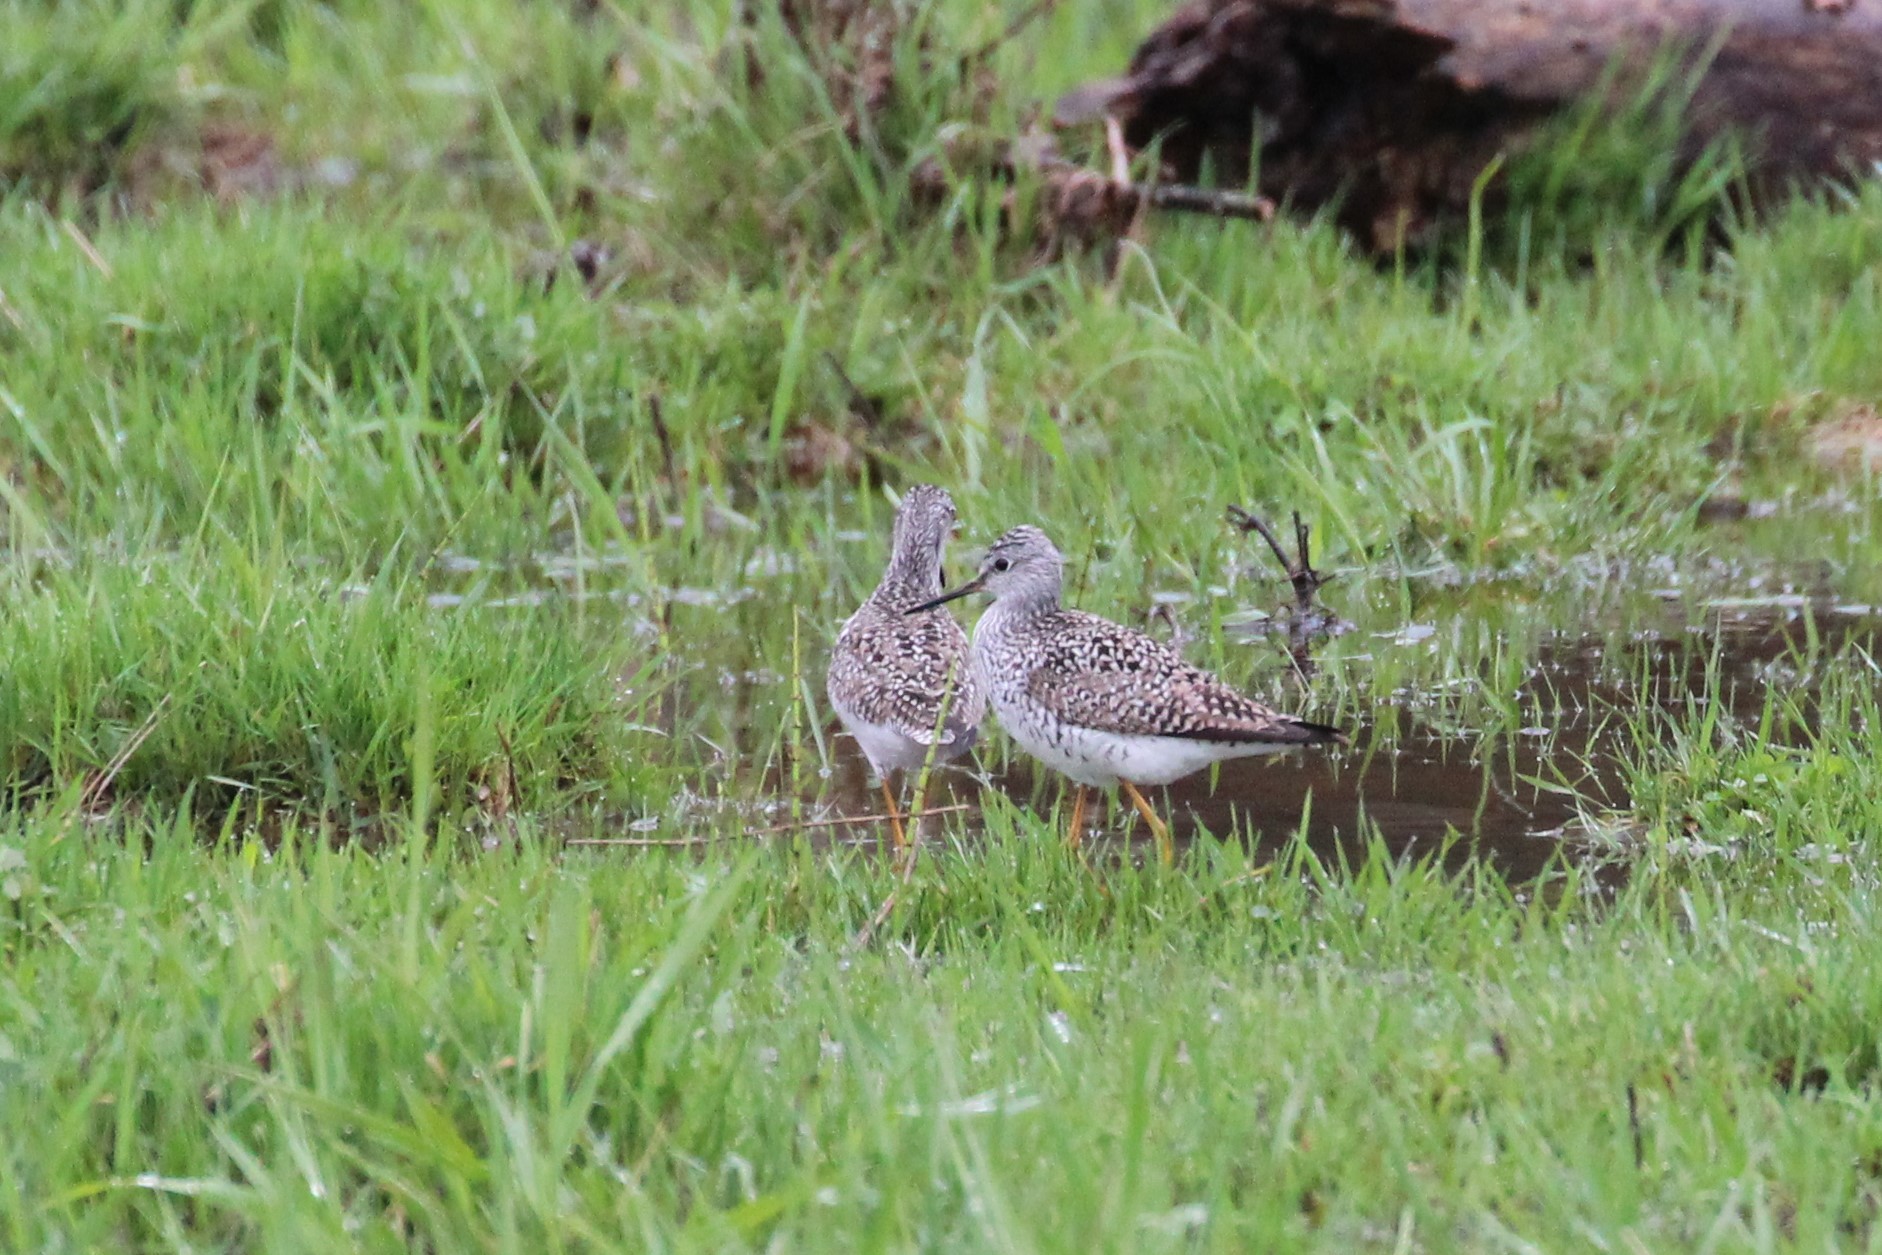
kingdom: Animalia
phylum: Chordata
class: Aves
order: Charadriiformes
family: Scolopacidae
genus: Tringa
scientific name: Tringa melanoleuca
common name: Greater yellowlegs
